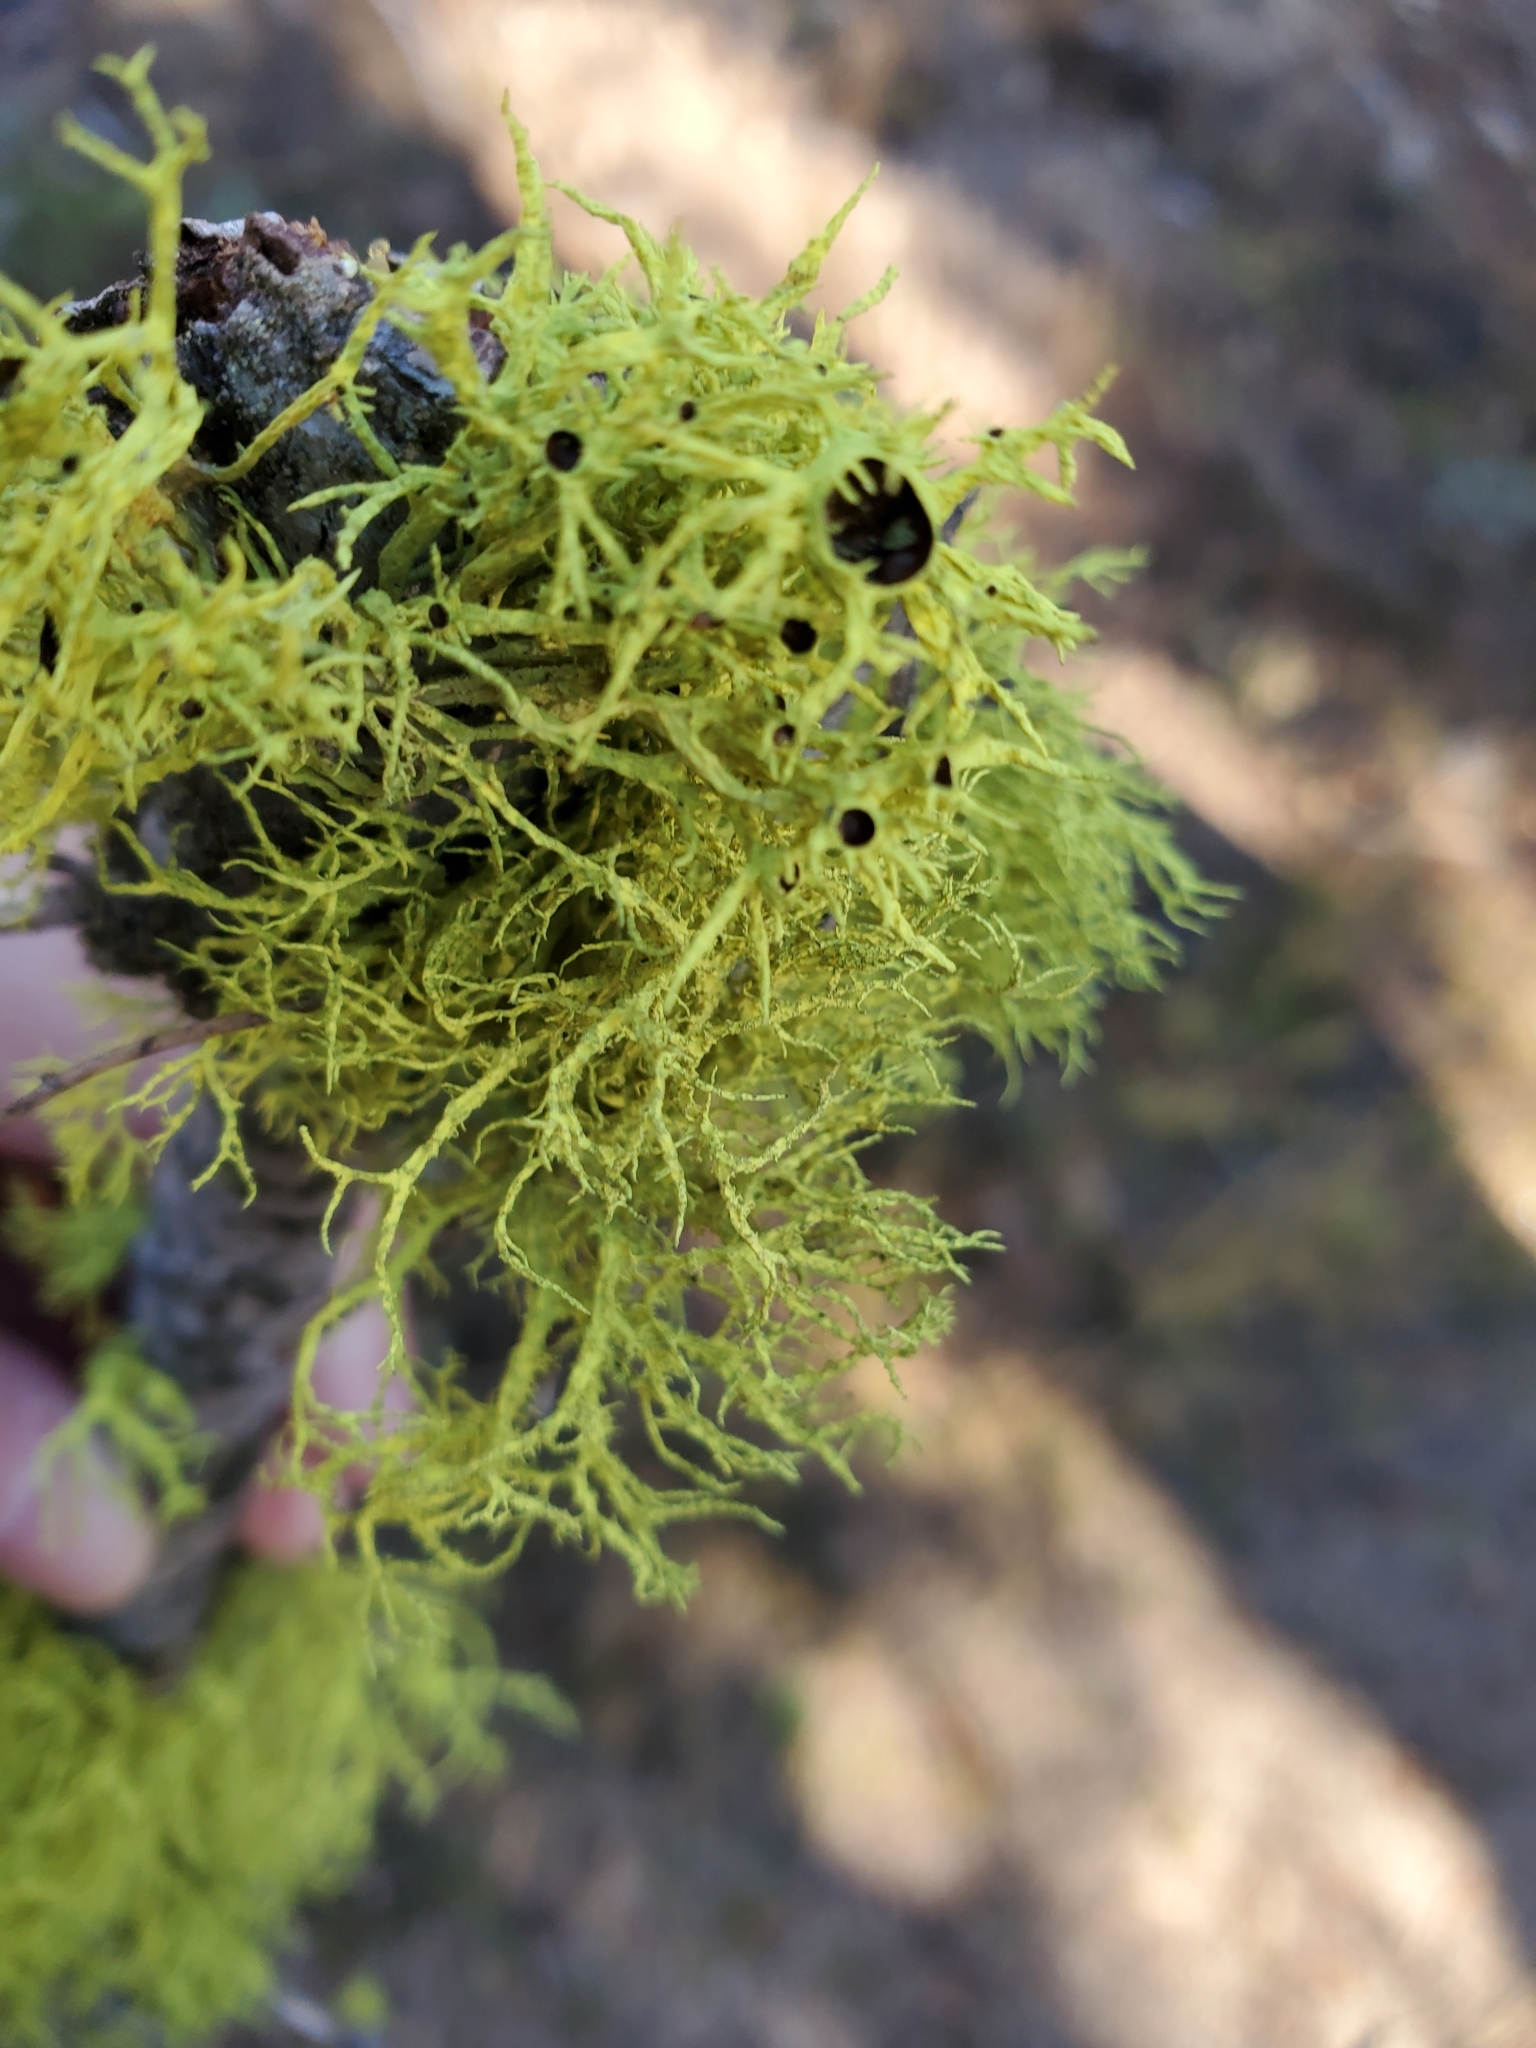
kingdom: Fungi
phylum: Ascomycota
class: Lecanoromycetes
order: Lecanorales
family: Parmeliaceae
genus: Letharia
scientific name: Letharia columbiana
